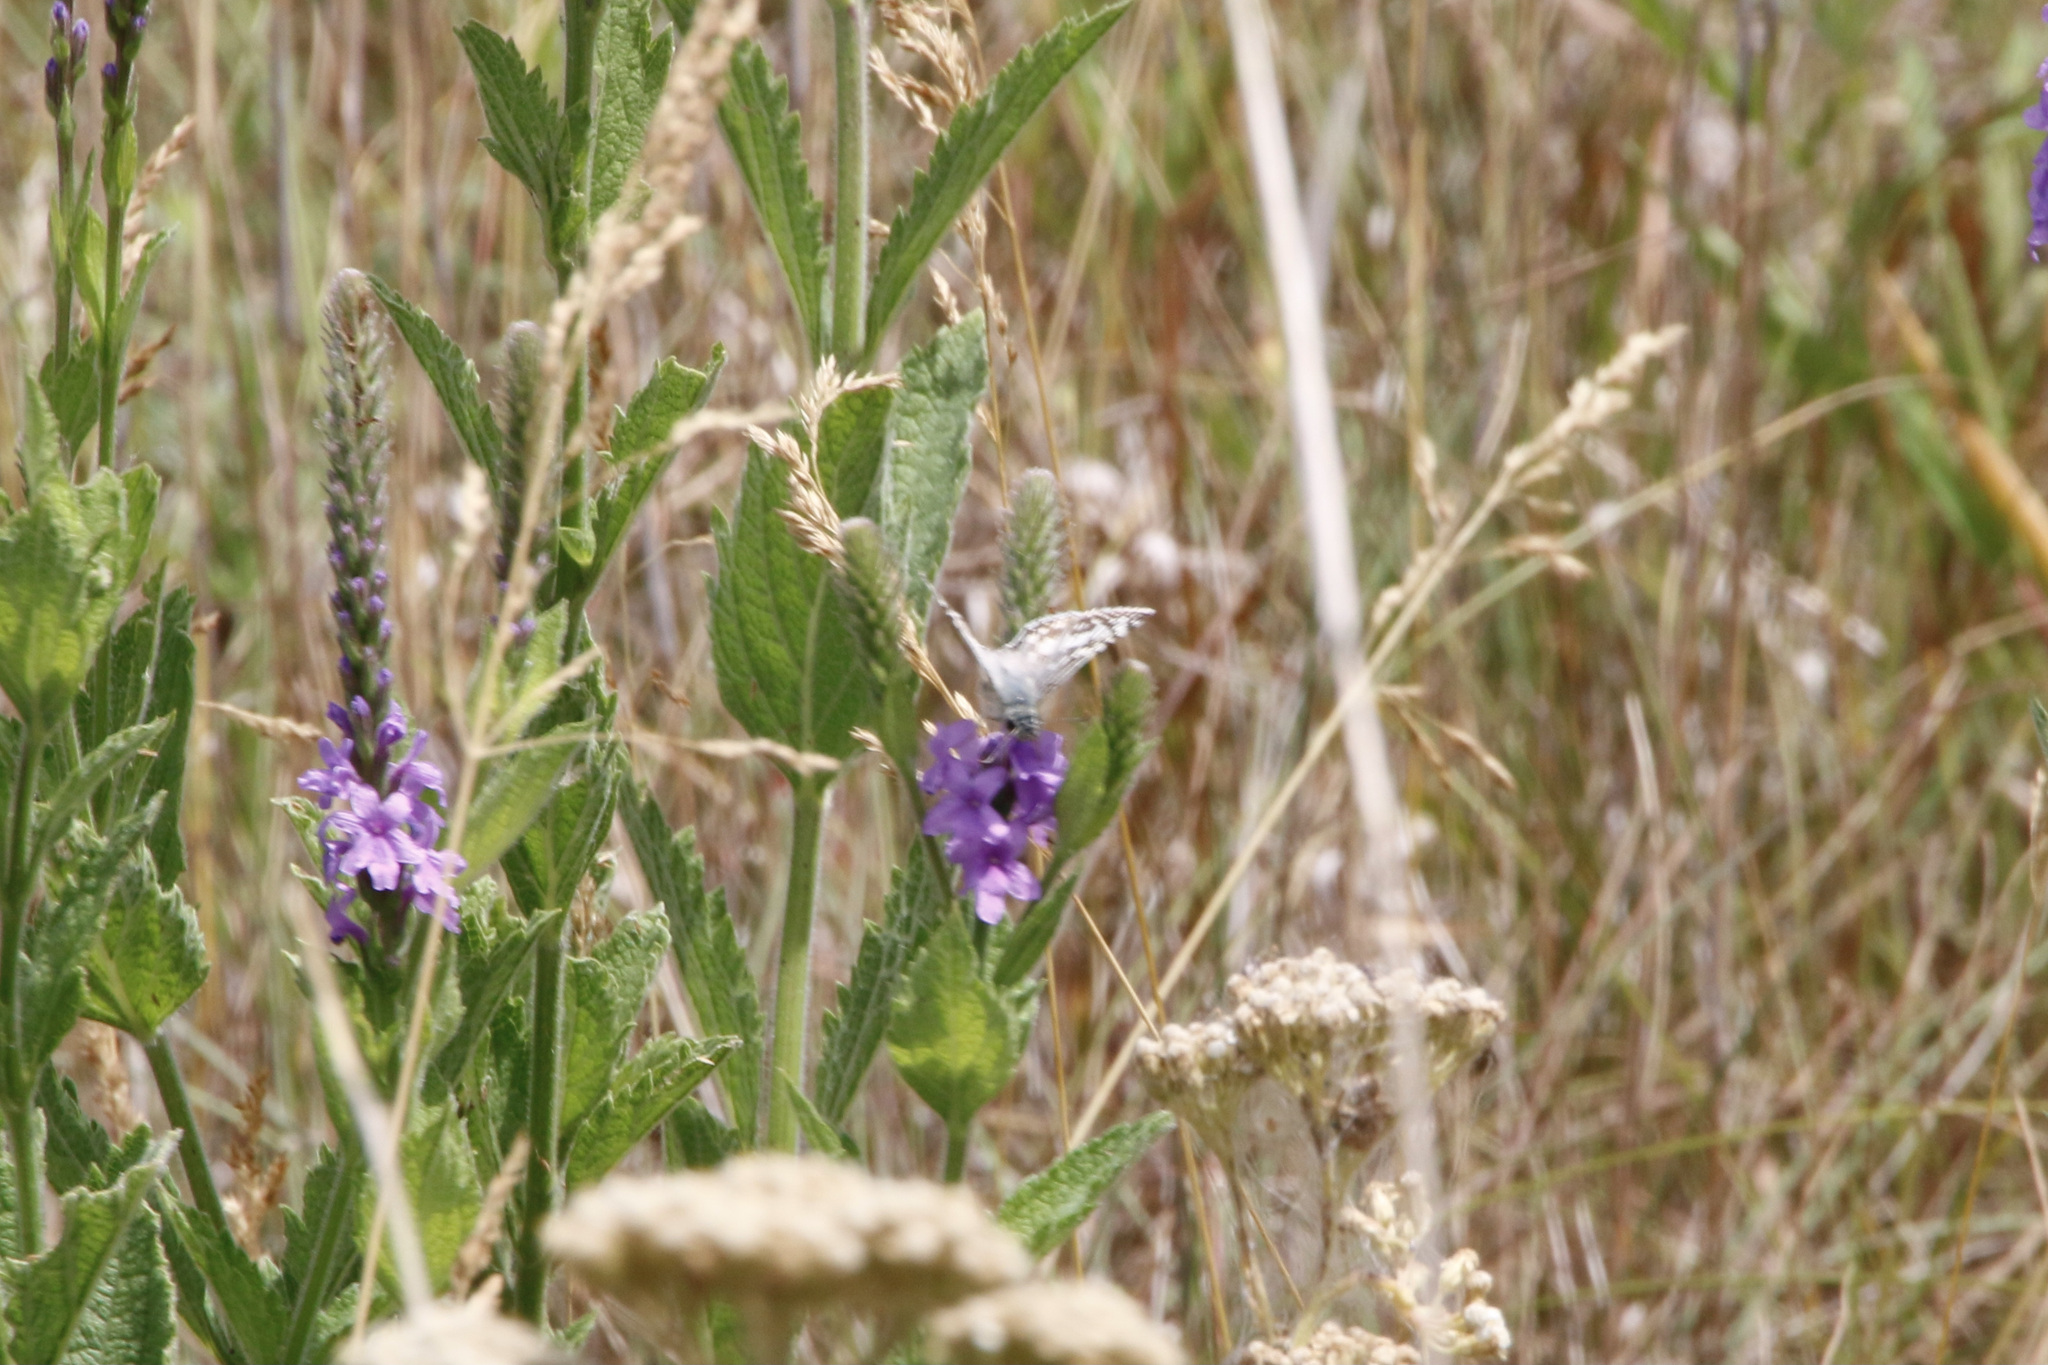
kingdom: Animalia
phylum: Arthropoda
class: Insecta
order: Lepidoptera
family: Hesperiidae
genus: Burnsius
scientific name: Burnsius communis
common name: Common checkered-skipper
